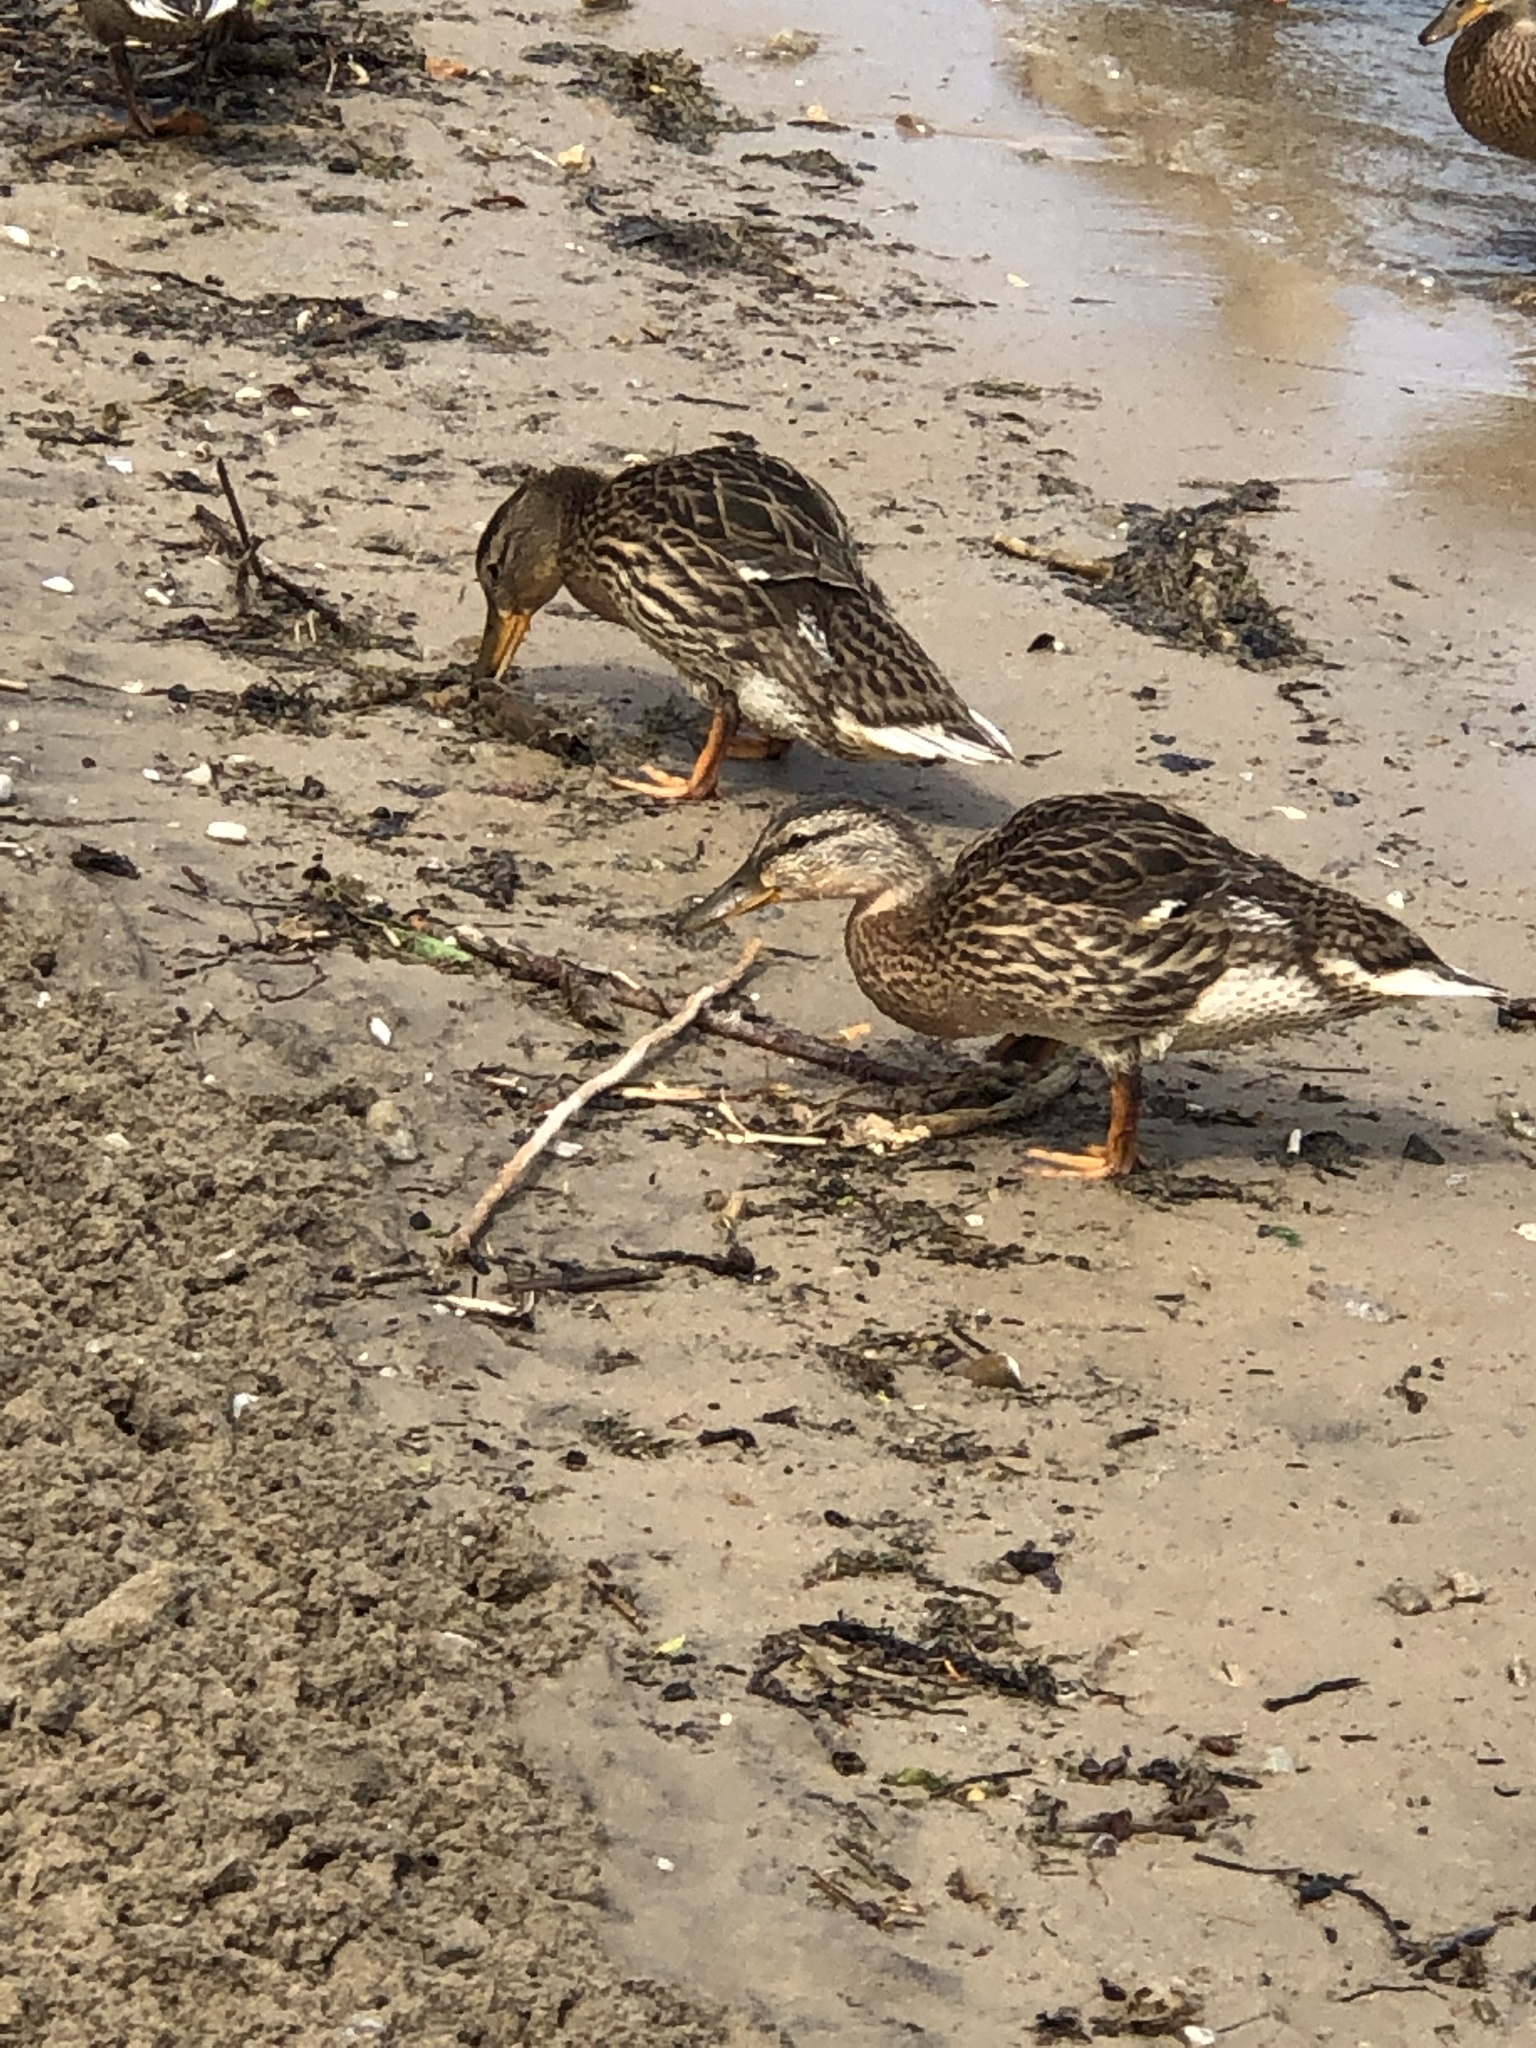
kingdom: Animalia
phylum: Chordata
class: Aves
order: Anseriformes
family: Anatidae
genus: Anas
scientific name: Anas platyrhynchos
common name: Mallard
